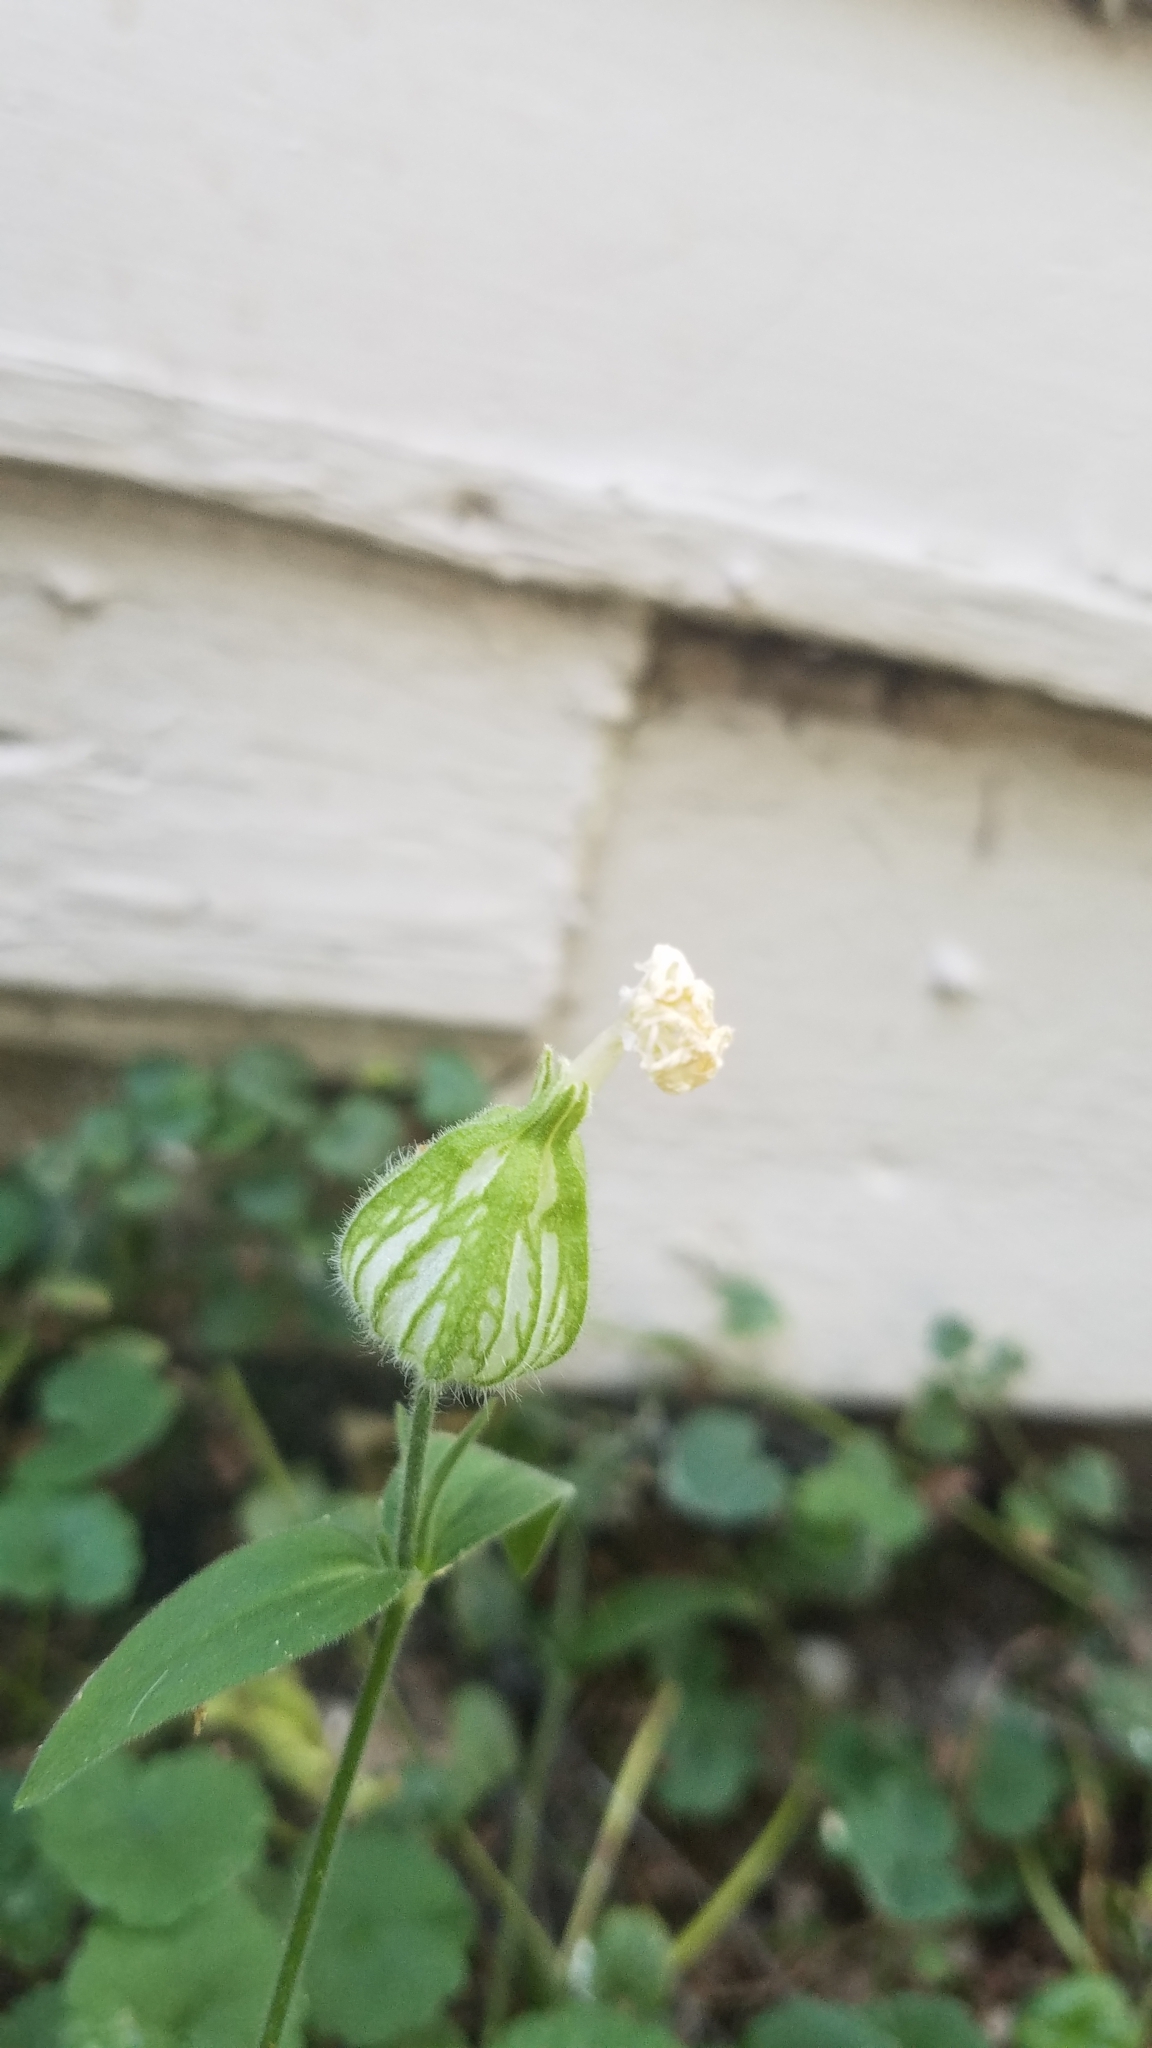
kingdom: Plantae
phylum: Tracheophyta
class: Magnoliopsida
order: Caryophyllales
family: Caryophyllaceae
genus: Silene
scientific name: Silene latifolia
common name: White campion
